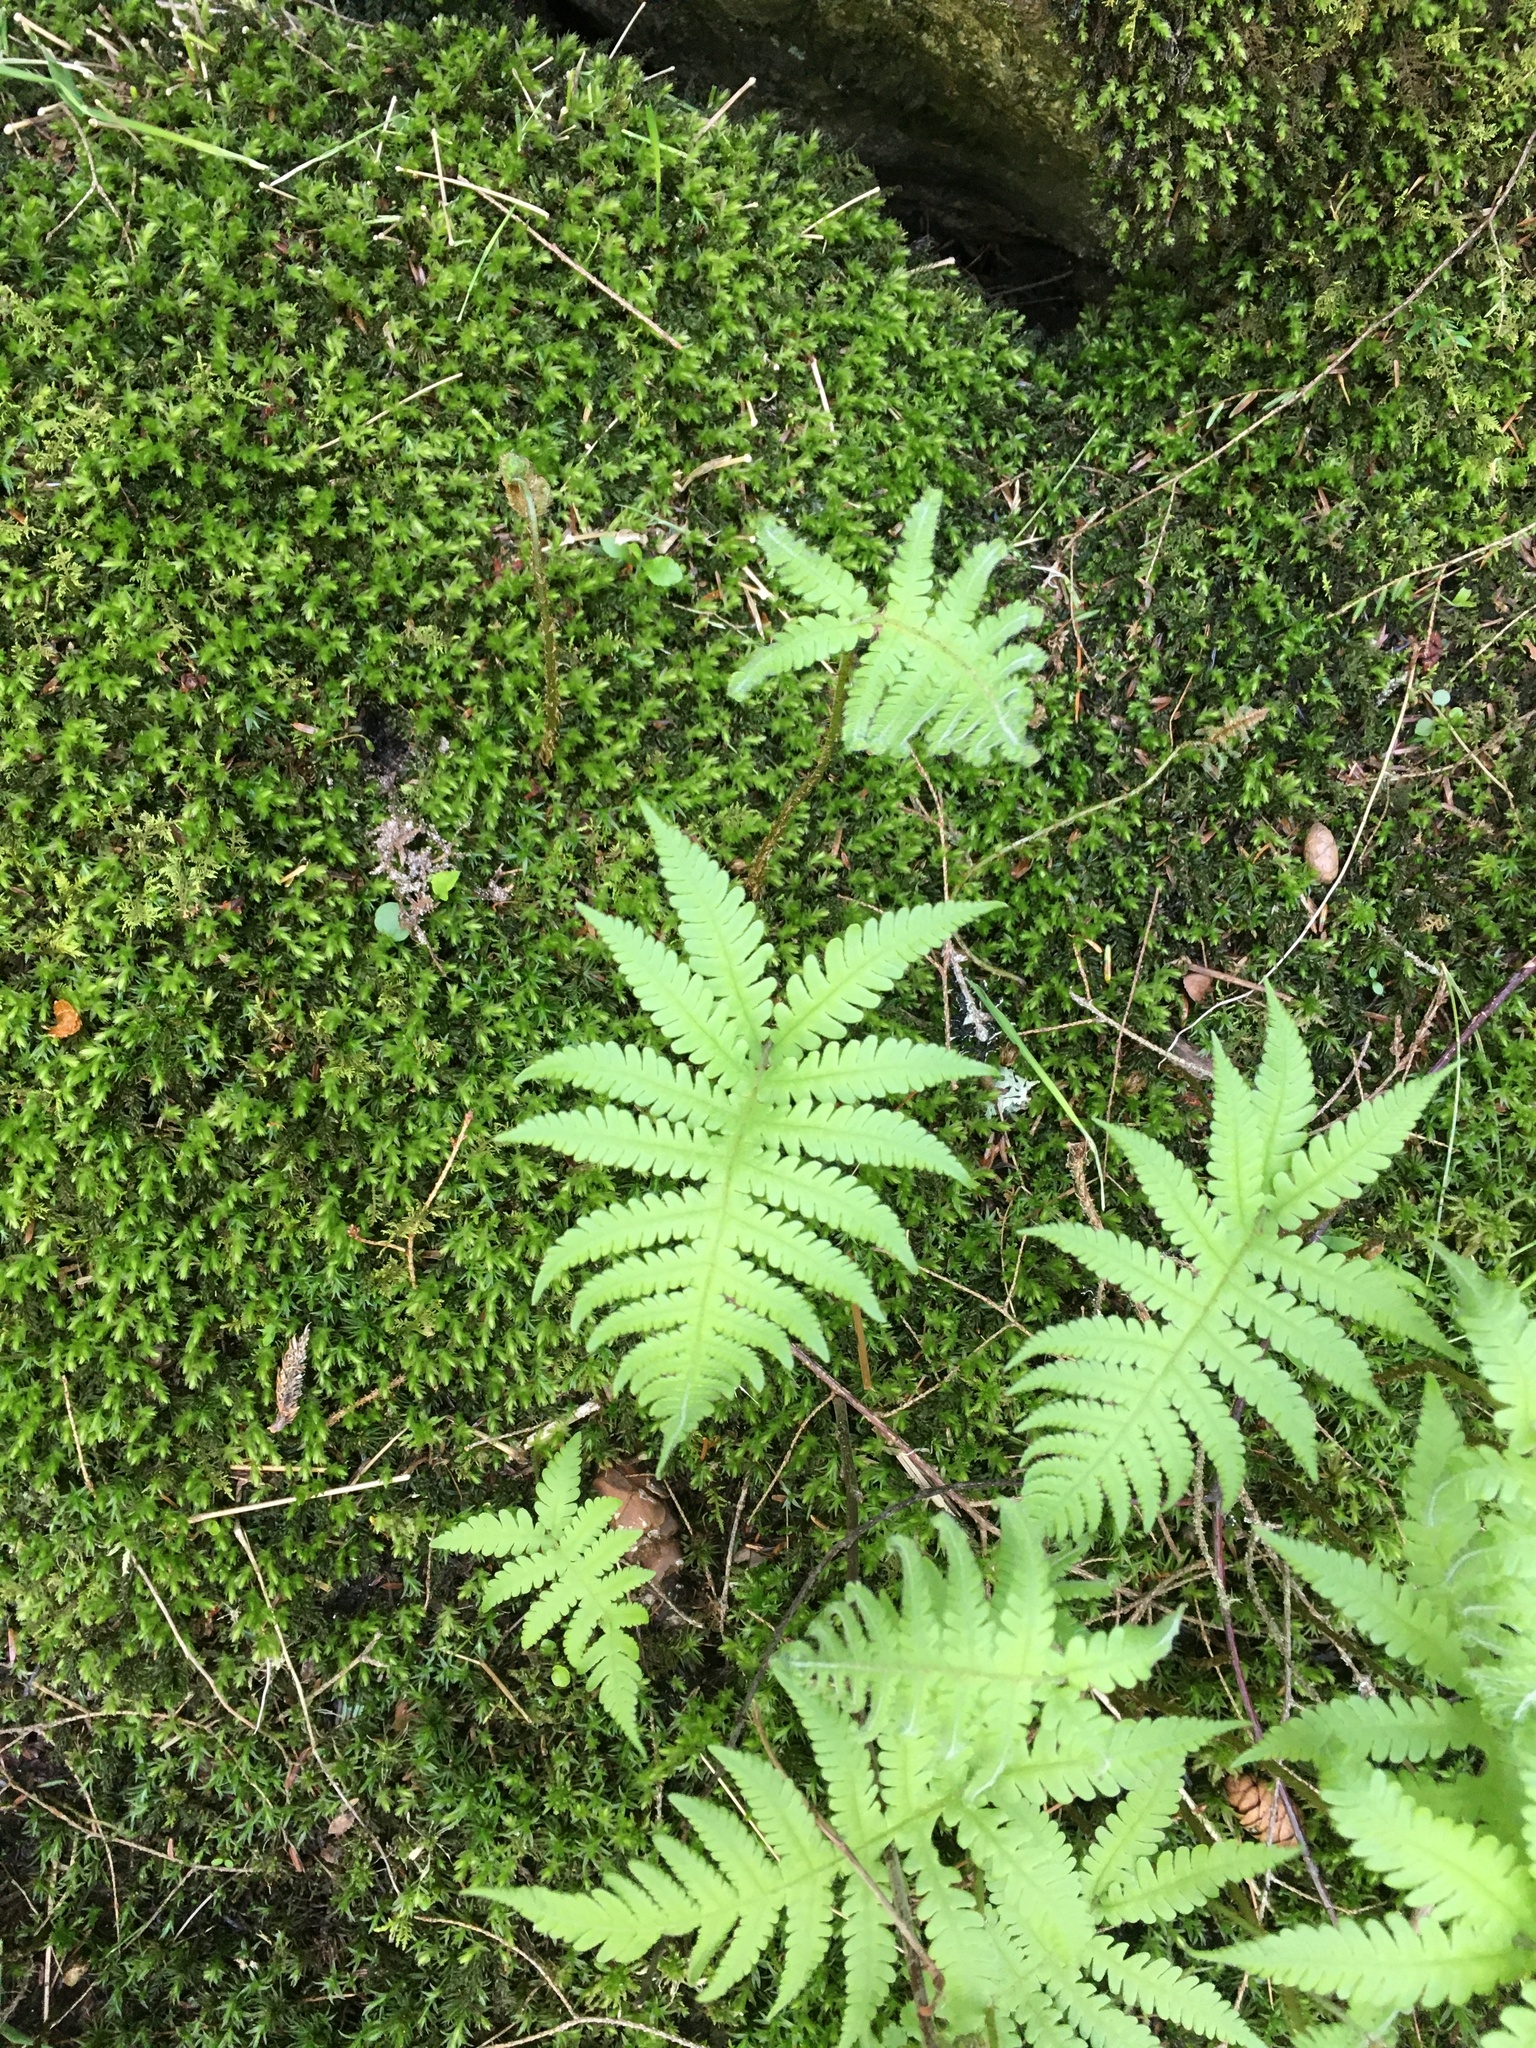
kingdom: Plantae
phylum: Tracheophyta
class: Polypodiopsida
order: Polypodiales
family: Thelypteridaceae
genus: Phegopteris
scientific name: Phegopteris connectilis
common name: Beech fern
